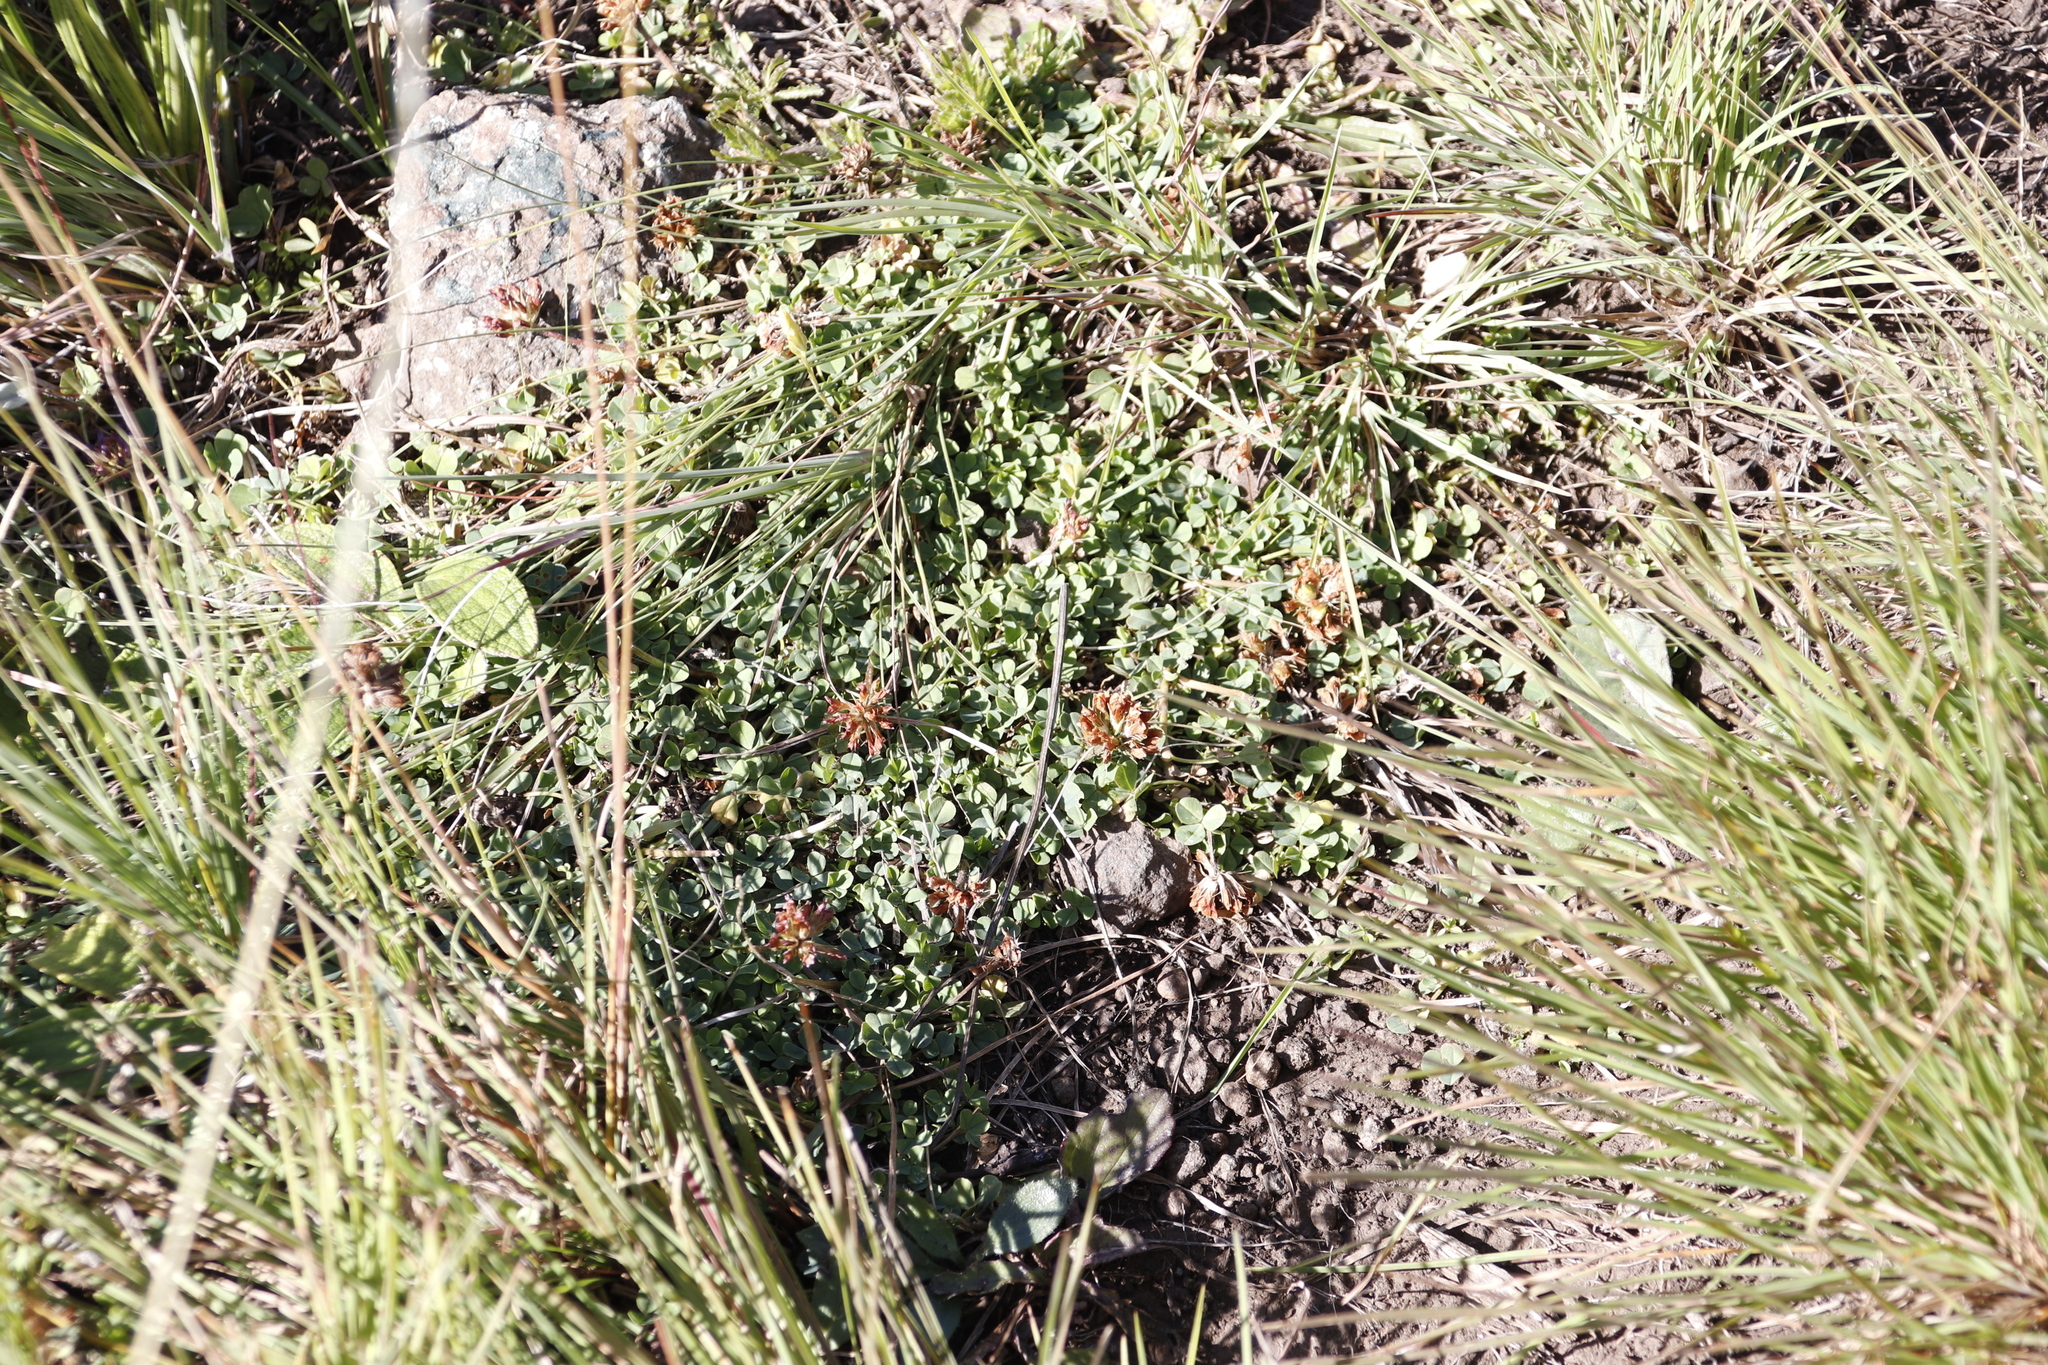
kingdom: Plantae
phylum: Tracheophyta
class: Magnoliopsida
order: Fabales
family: Fabaceae
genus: Trifolium
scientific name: Trifolium repens
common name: White clover
